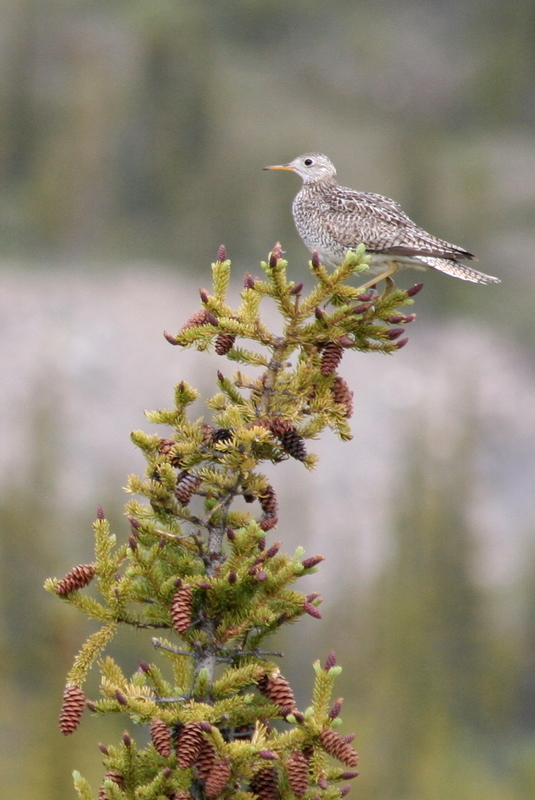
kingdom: Animalia
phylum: Chordata
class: Aves
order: Charadriiformes
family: Scolopacidae
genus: Bartramia
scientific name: Bartramia longicauda
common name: Upland sandpiper
